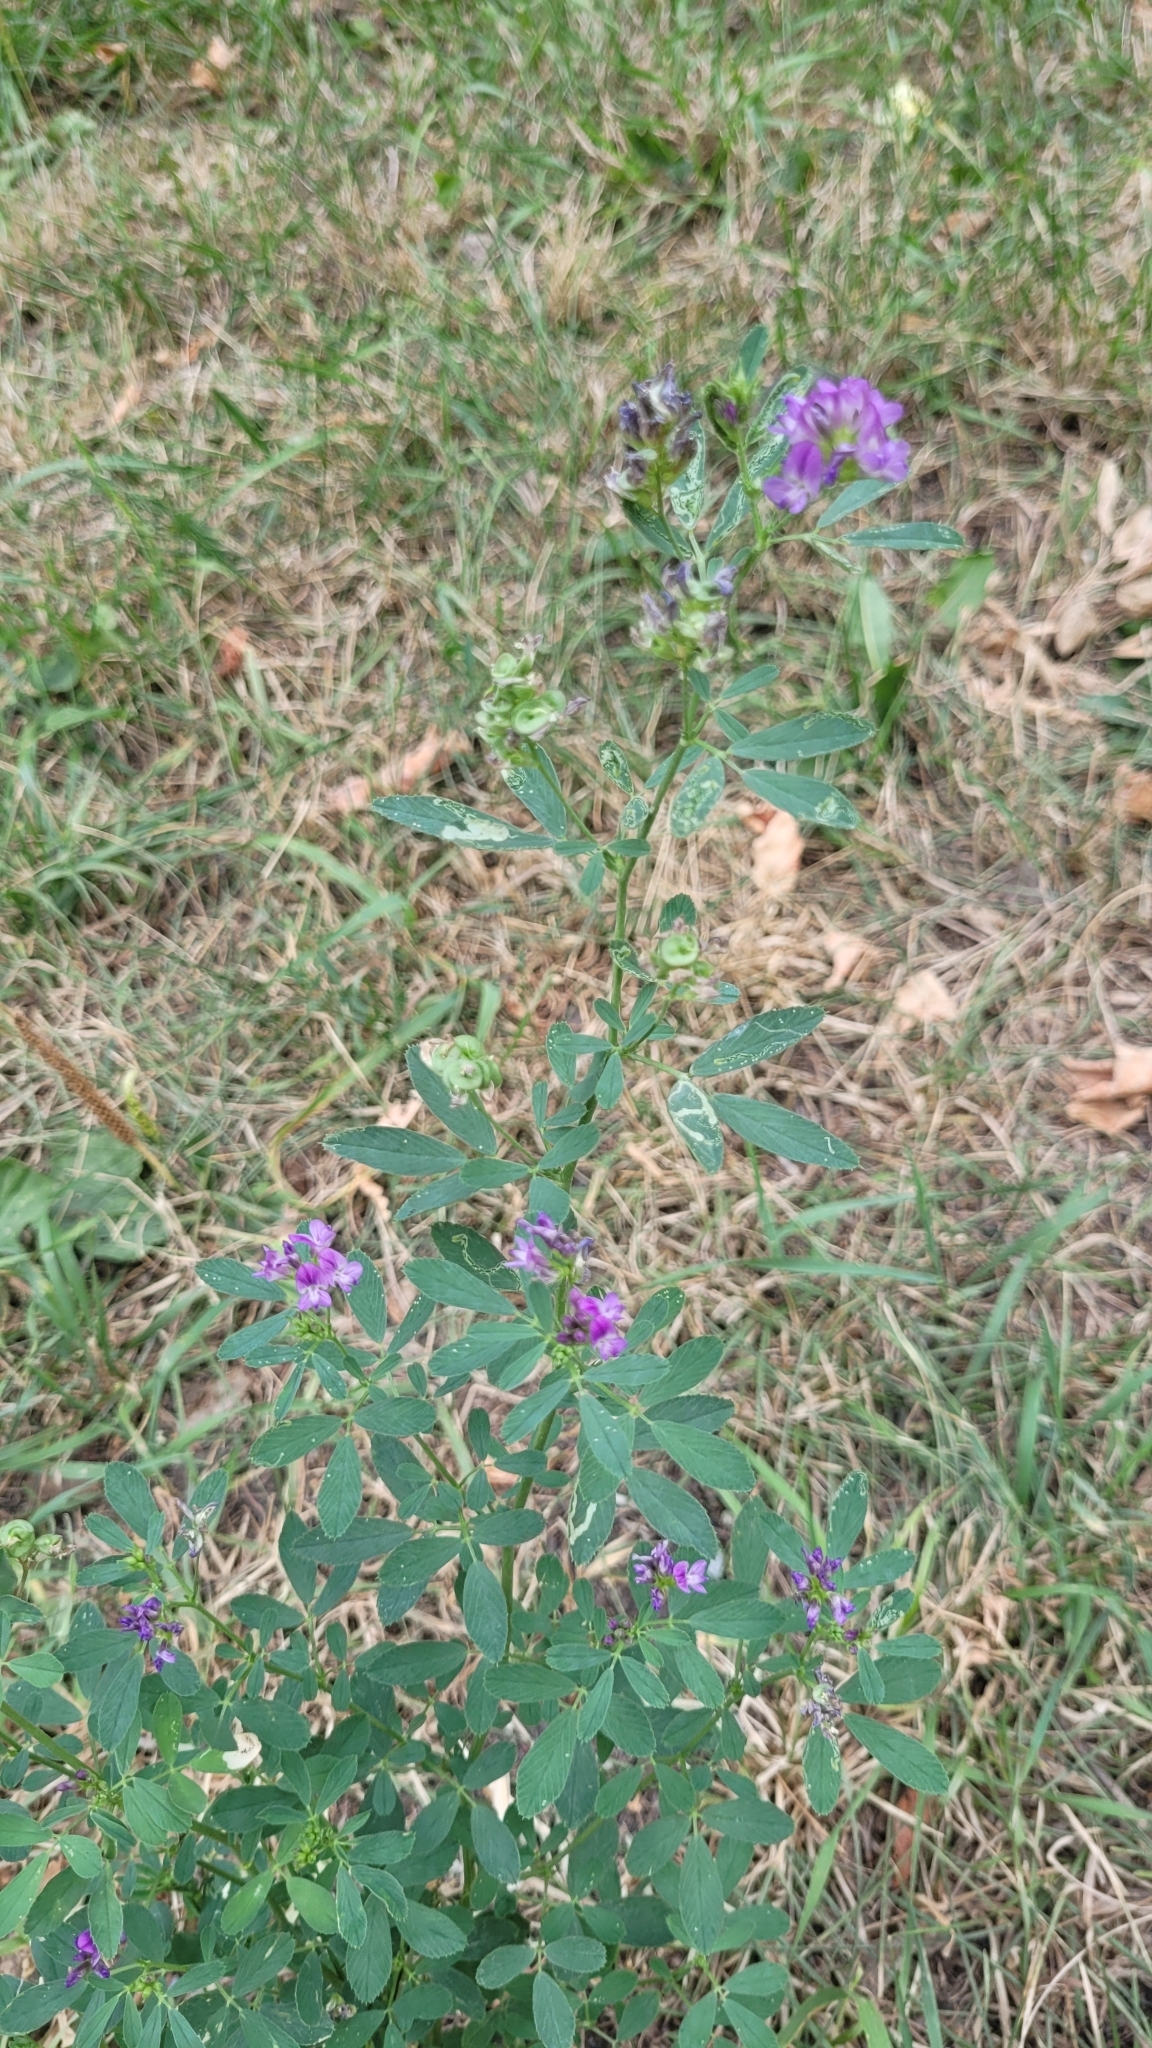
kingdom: Plantae
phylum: Tracheophyta
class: Magnoliopsida
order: Fabales
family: Fabaceae
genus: Medicago
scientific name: Medicago sativa
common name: Alfalfa
